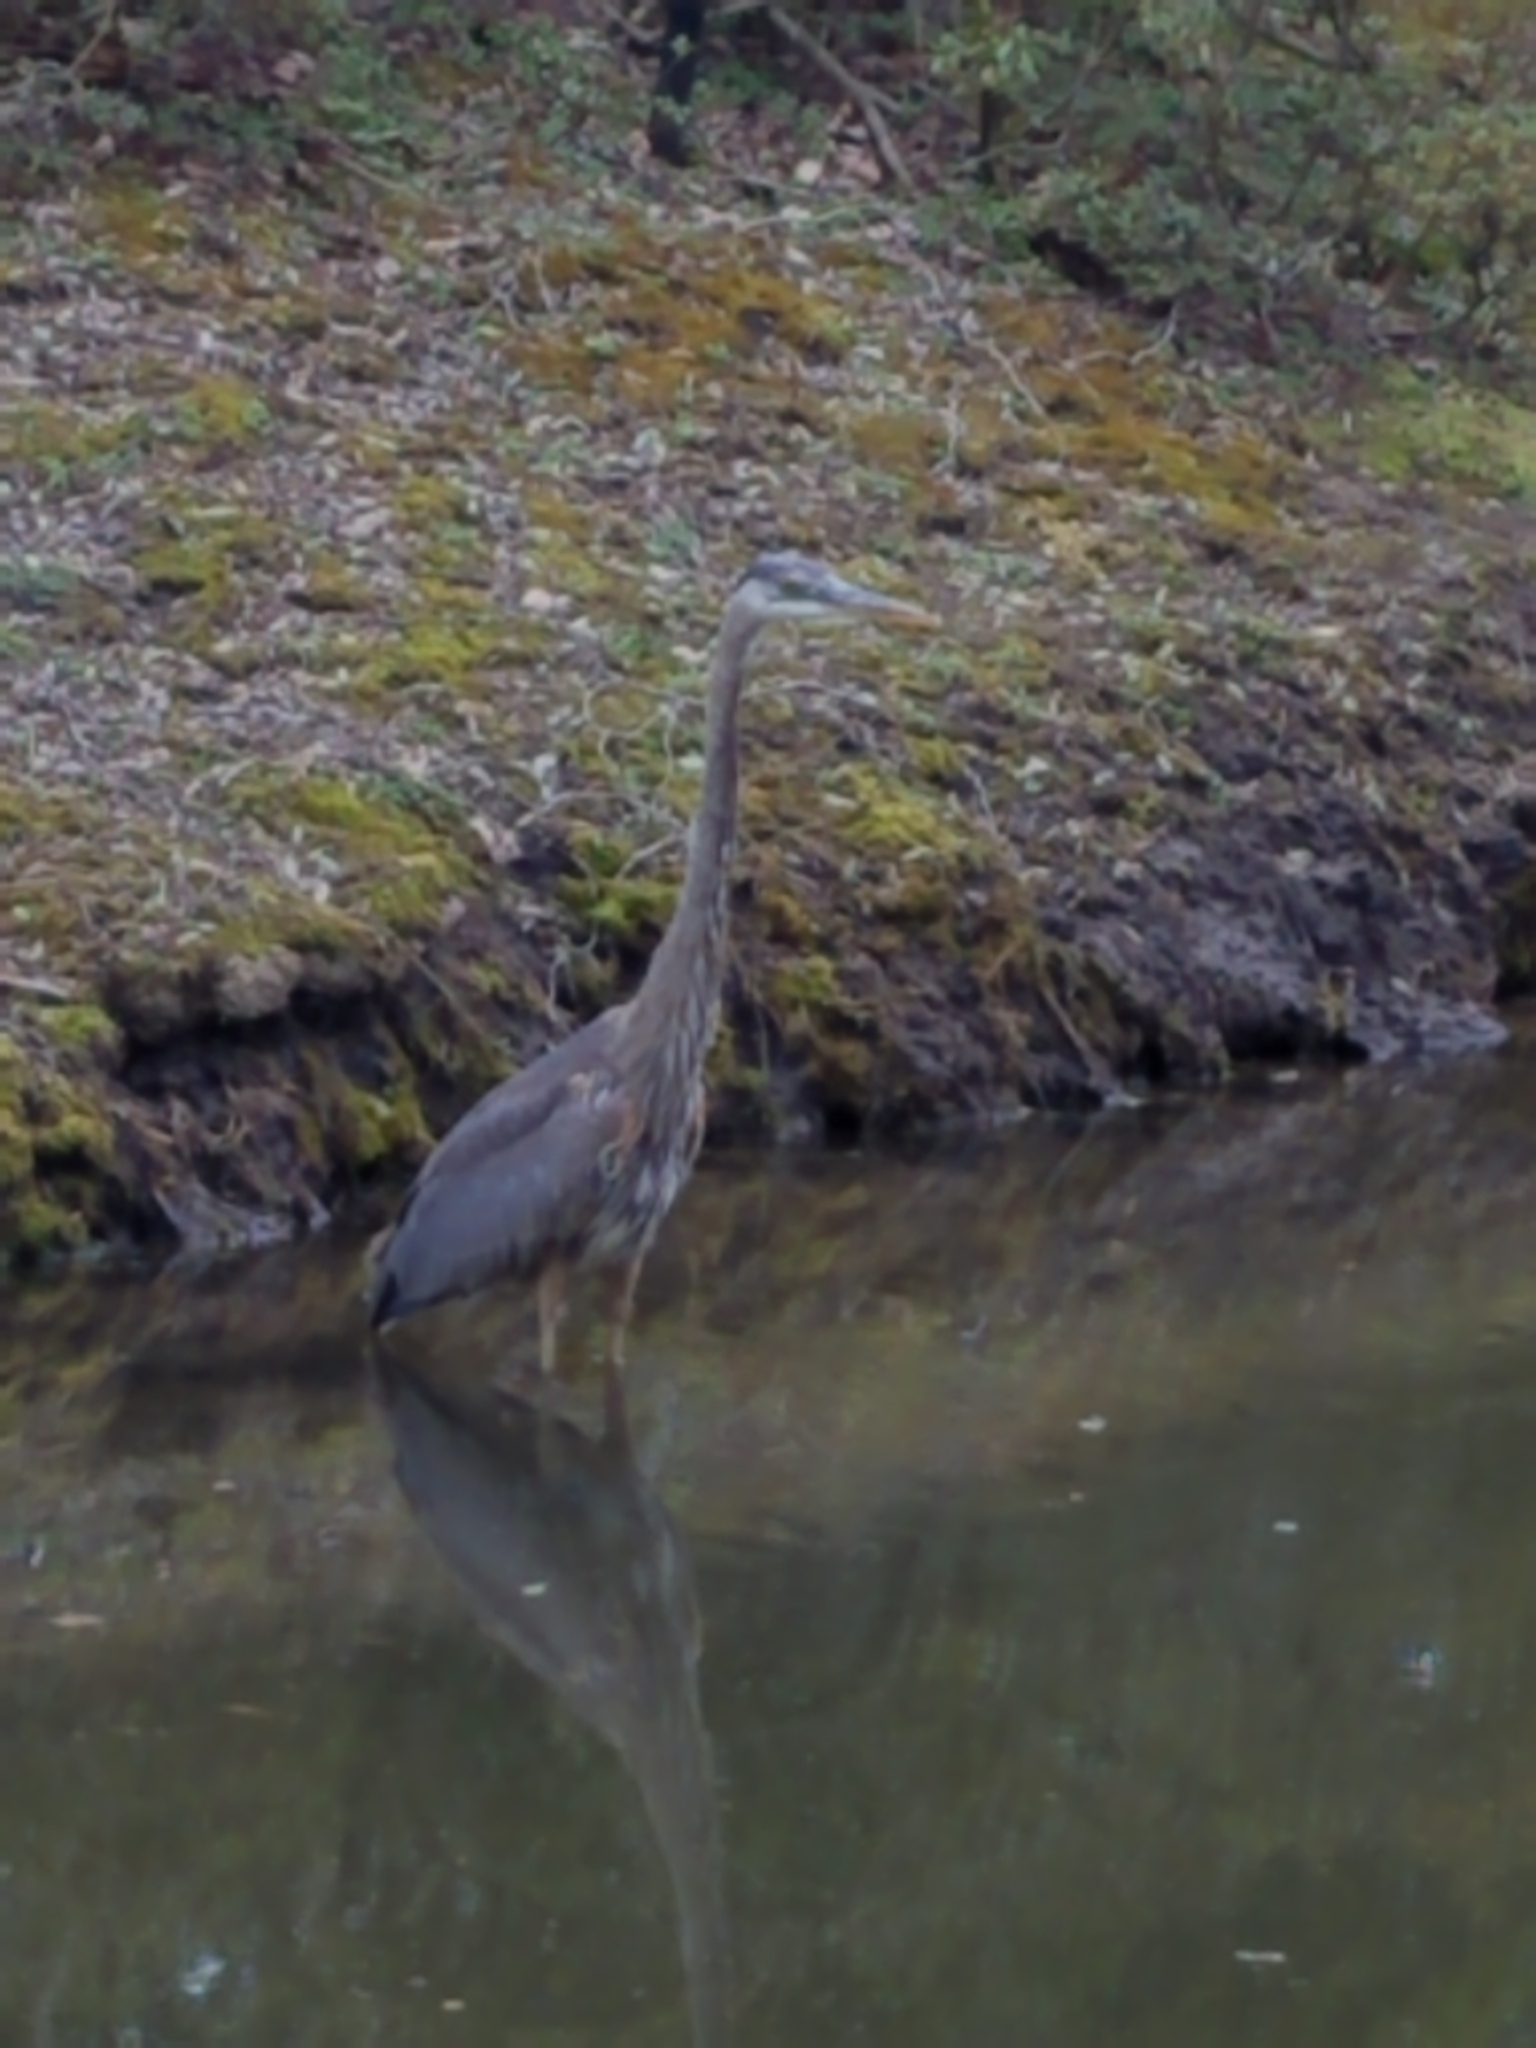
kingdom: Animalia
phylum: Chordata
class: Aves
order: Pelecaniformes
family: Ardeidae
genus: Ardea
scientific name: Ardea herodias
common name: Great blue heron
